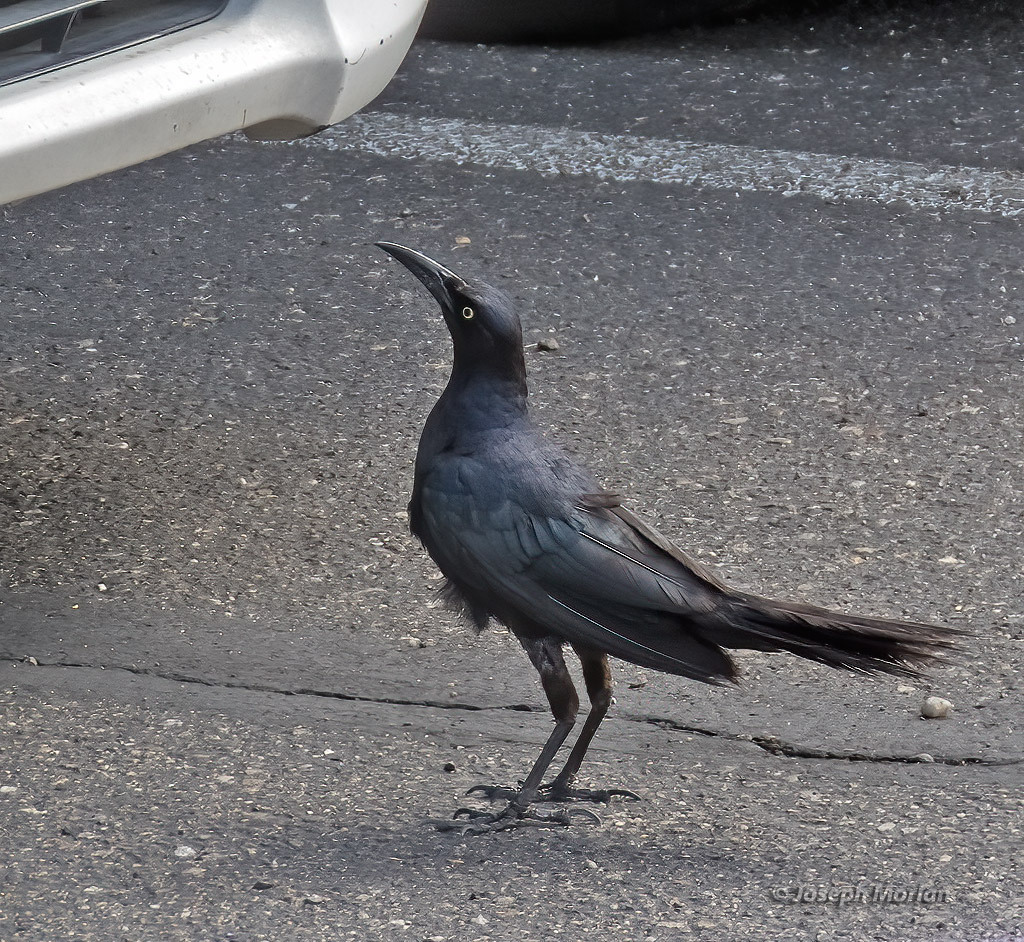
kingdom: Animalia
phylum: Chordata
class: Aves
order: Passeriformes
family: Icteridae
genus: Quiscalus
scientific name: Quiscalus mexicanus
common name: Great-tailed grackle
